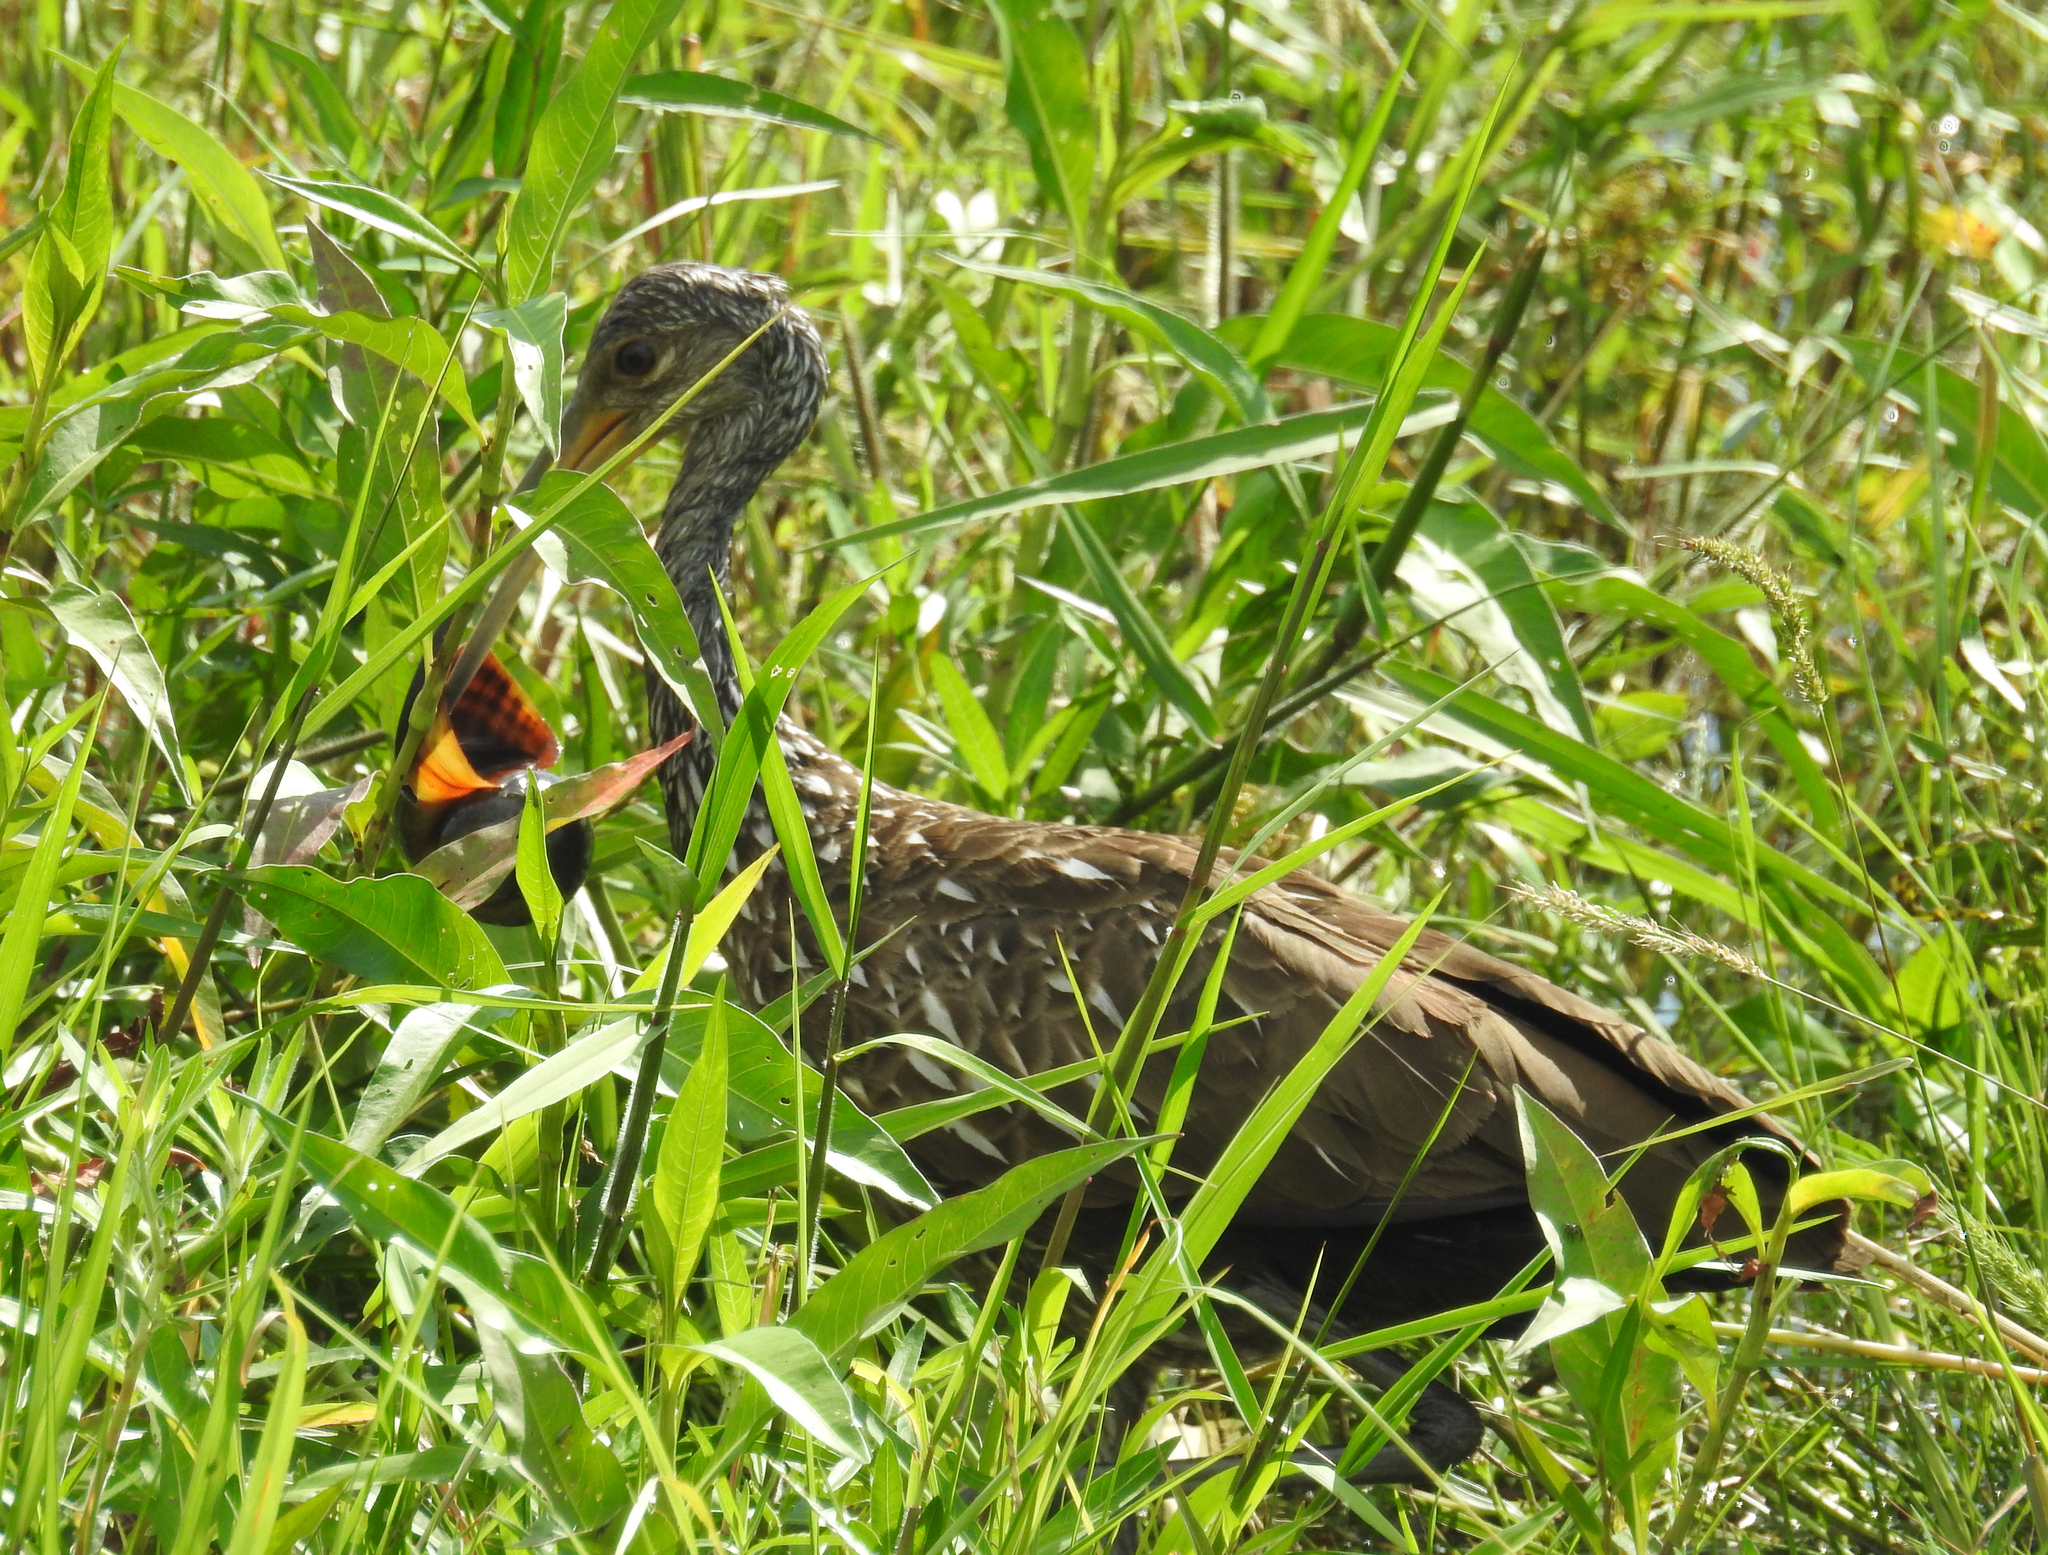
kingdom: Animalia
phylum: Chordata
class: Aves
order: Gruiformes
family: Aramidae
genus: Aramus
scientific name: Aramus guarauna
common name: Limpkin
